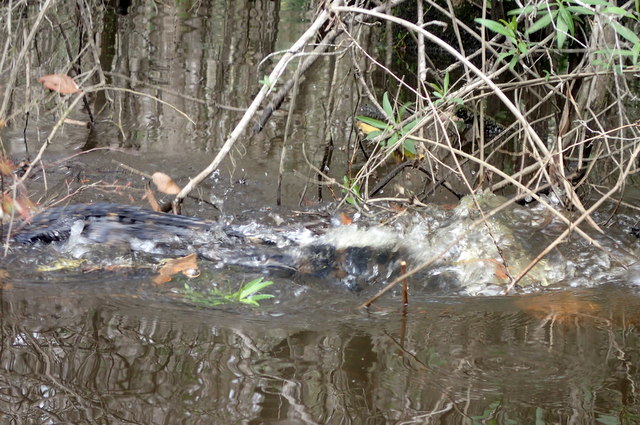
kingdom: Animalia
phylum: Chordata
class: Crocodylia
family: Alligatoridae
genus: Alligator
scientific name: Alligator mississippiensis
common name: American alligator
